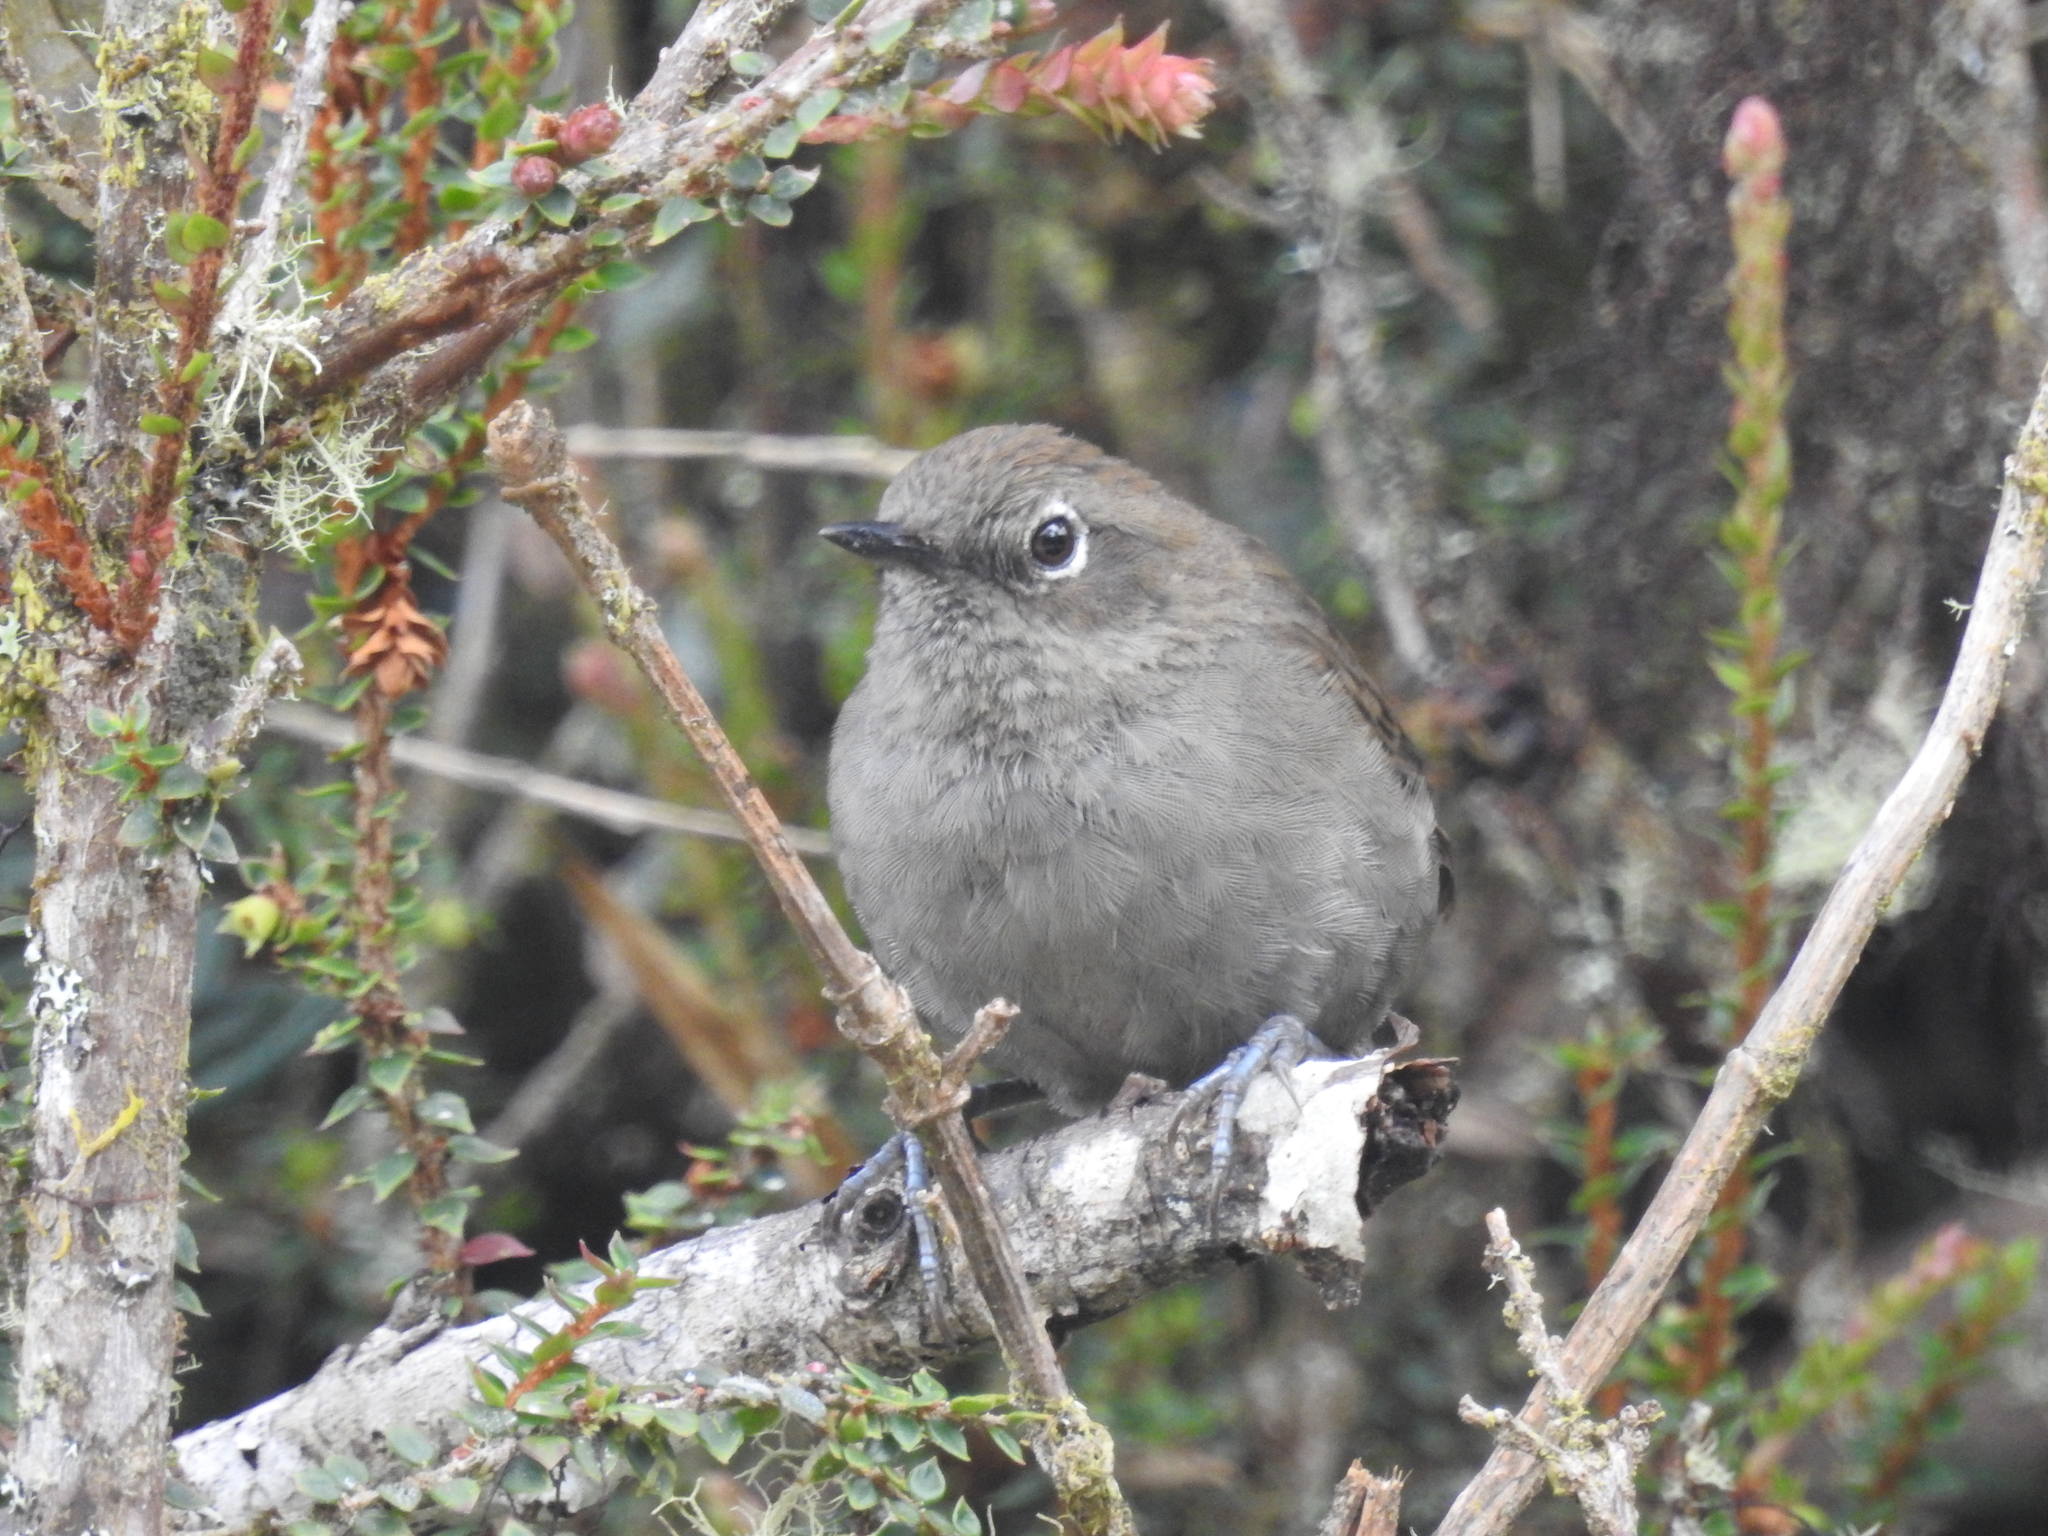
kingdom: Animalia
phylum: Chordata
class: Aves
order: Passeriformes
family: Furnariidae
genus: Schizoeaca
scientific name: Schizoeaca griseomurina
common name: Mouse-colored thistletail
